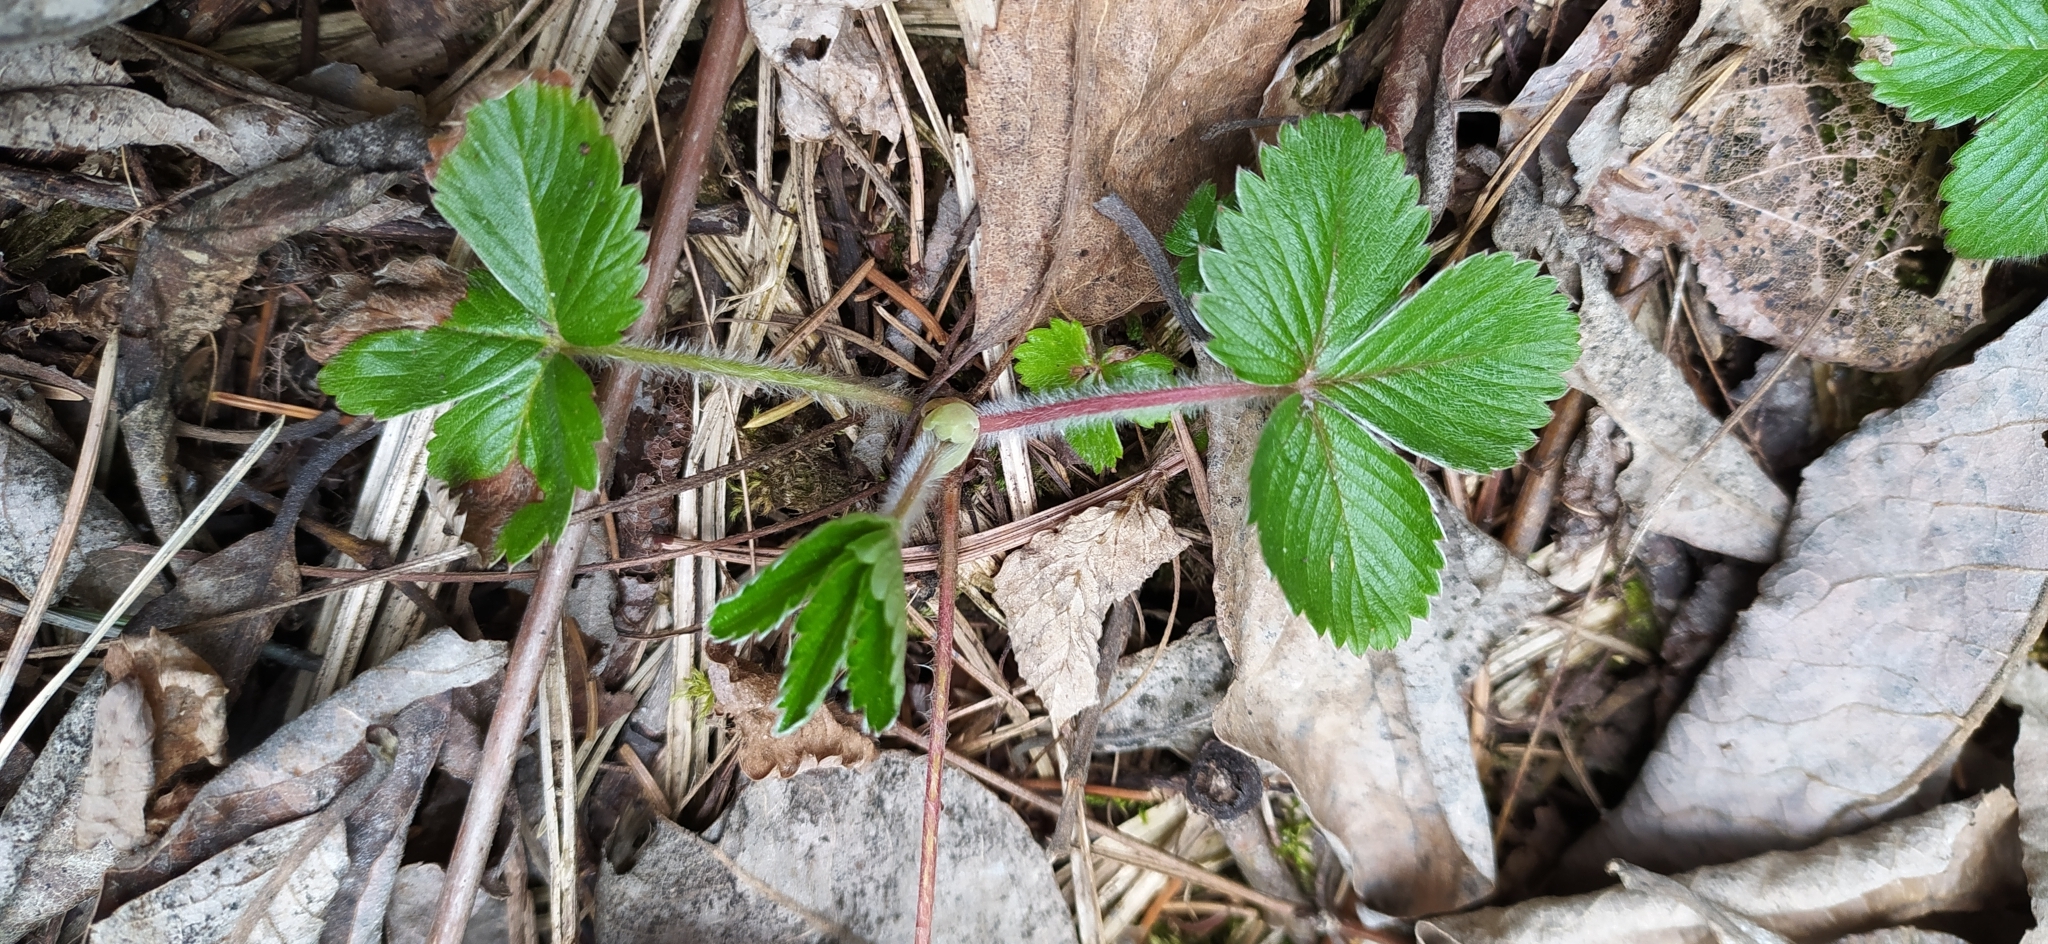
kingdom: Plantae
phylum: Tracheophyta
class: Magnoliopsida
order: Rosales
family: Rosaceae
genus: Fragaria
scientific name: Fragaria vesca
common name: Wild strawberry
